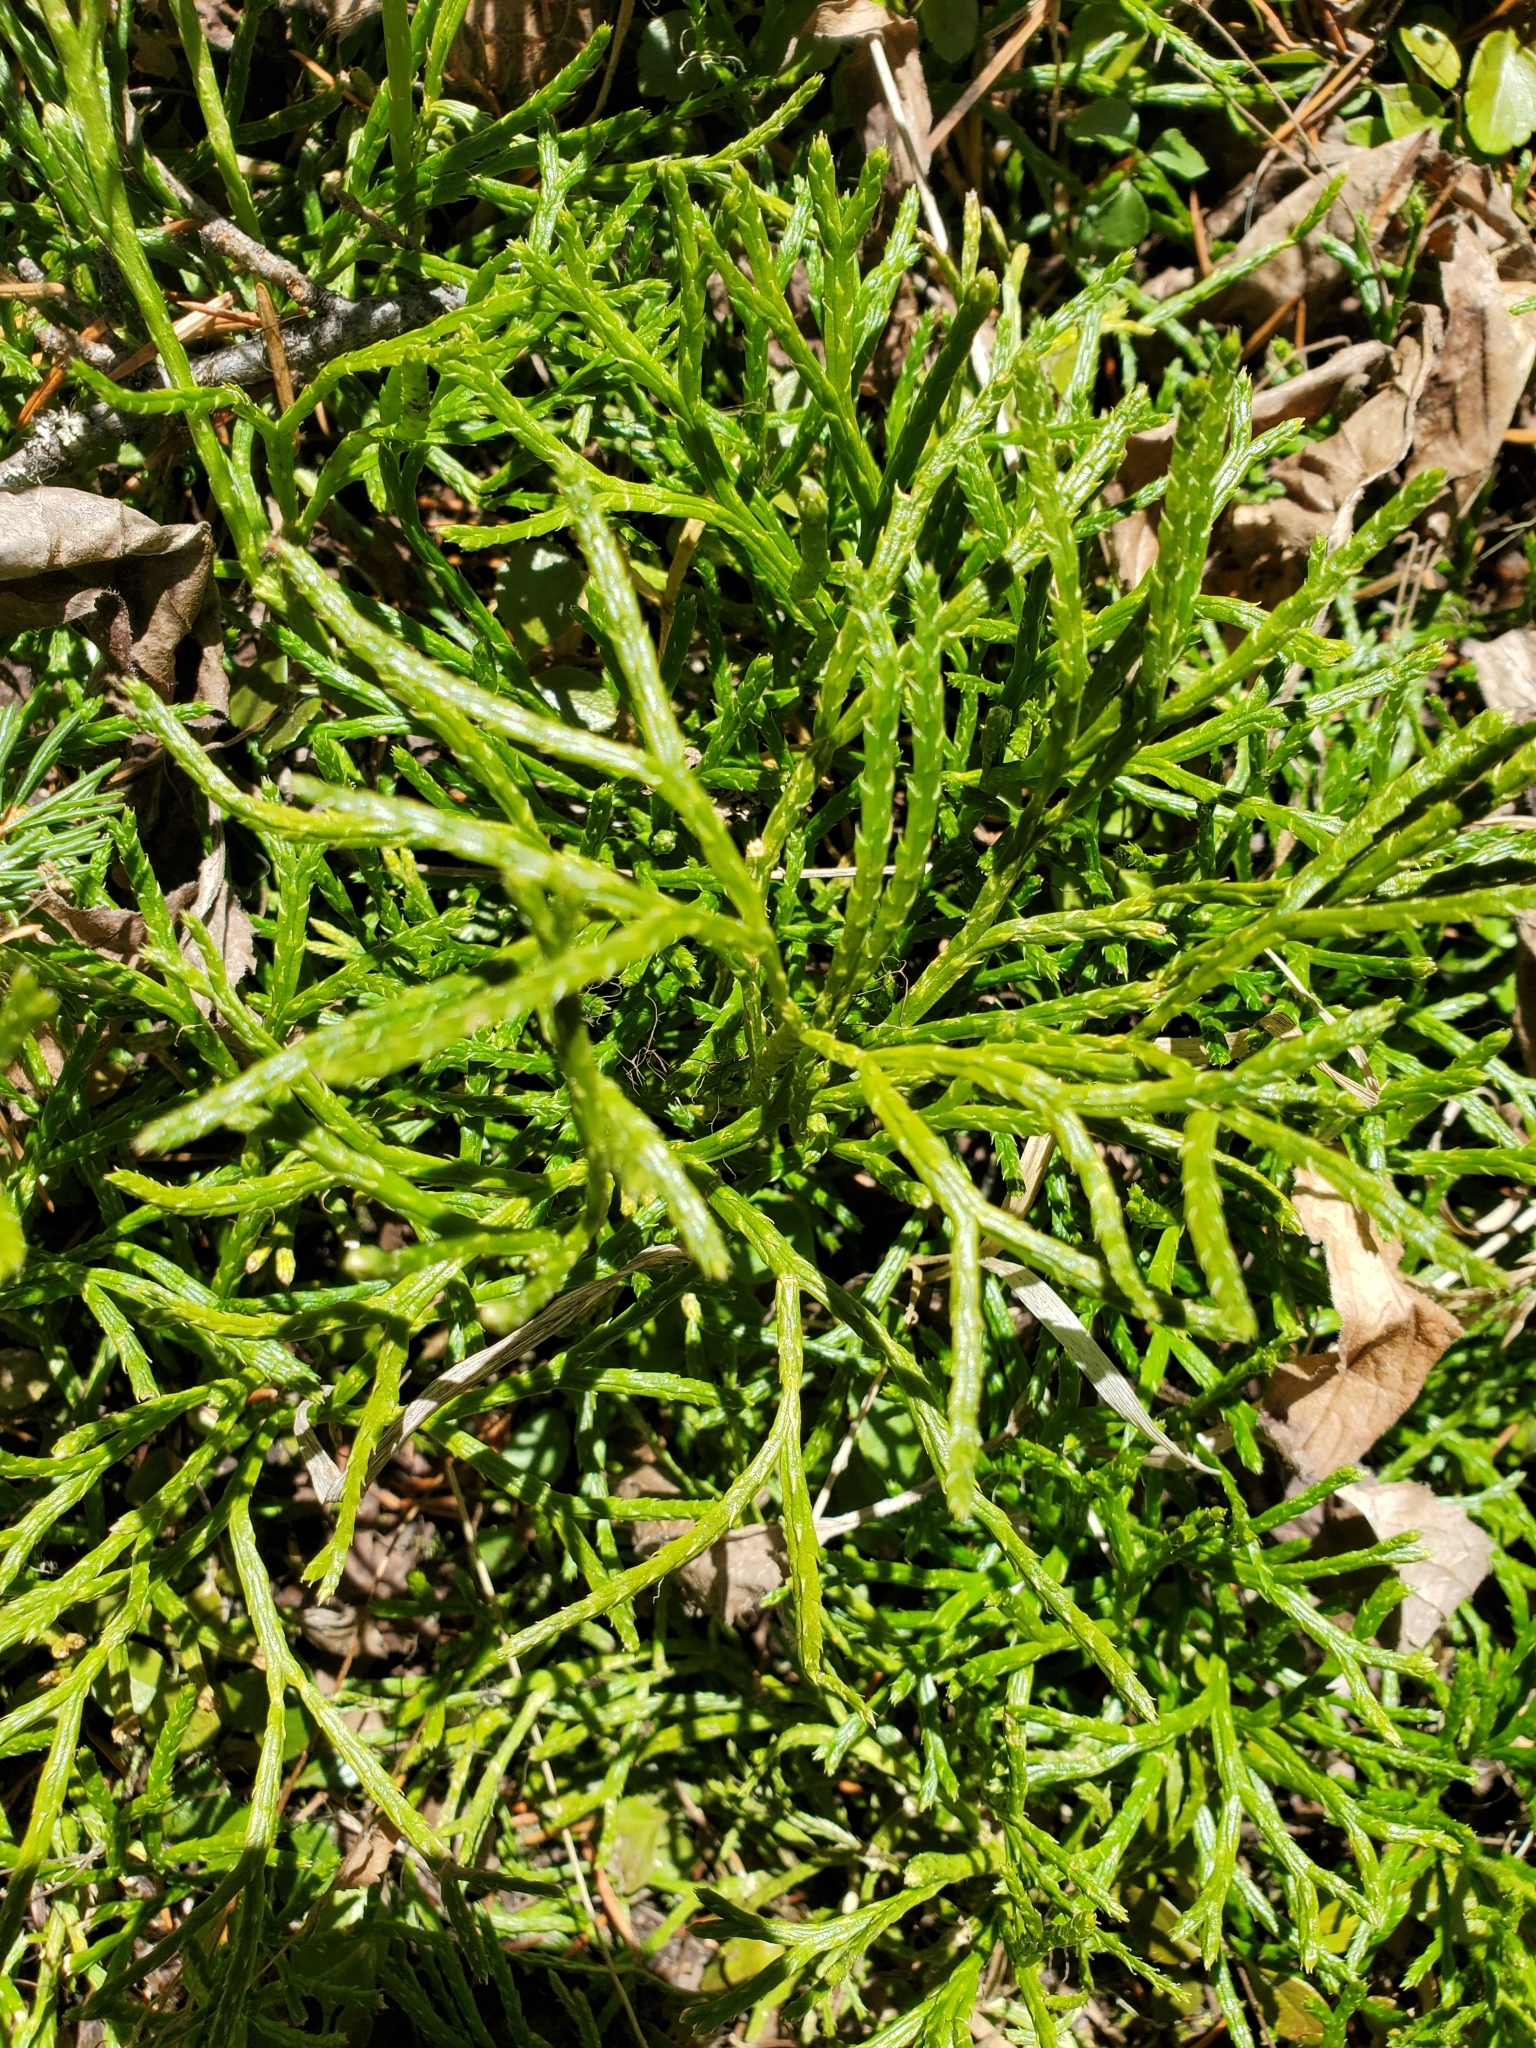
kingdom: Plantae
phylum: Tracheophyta
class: Lycopodiopsida
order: Lycopodiales
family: Lycopodiaceae
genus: Diphasiastrum
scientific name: Diphasiastrum complanatum
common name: Northern running-pine
